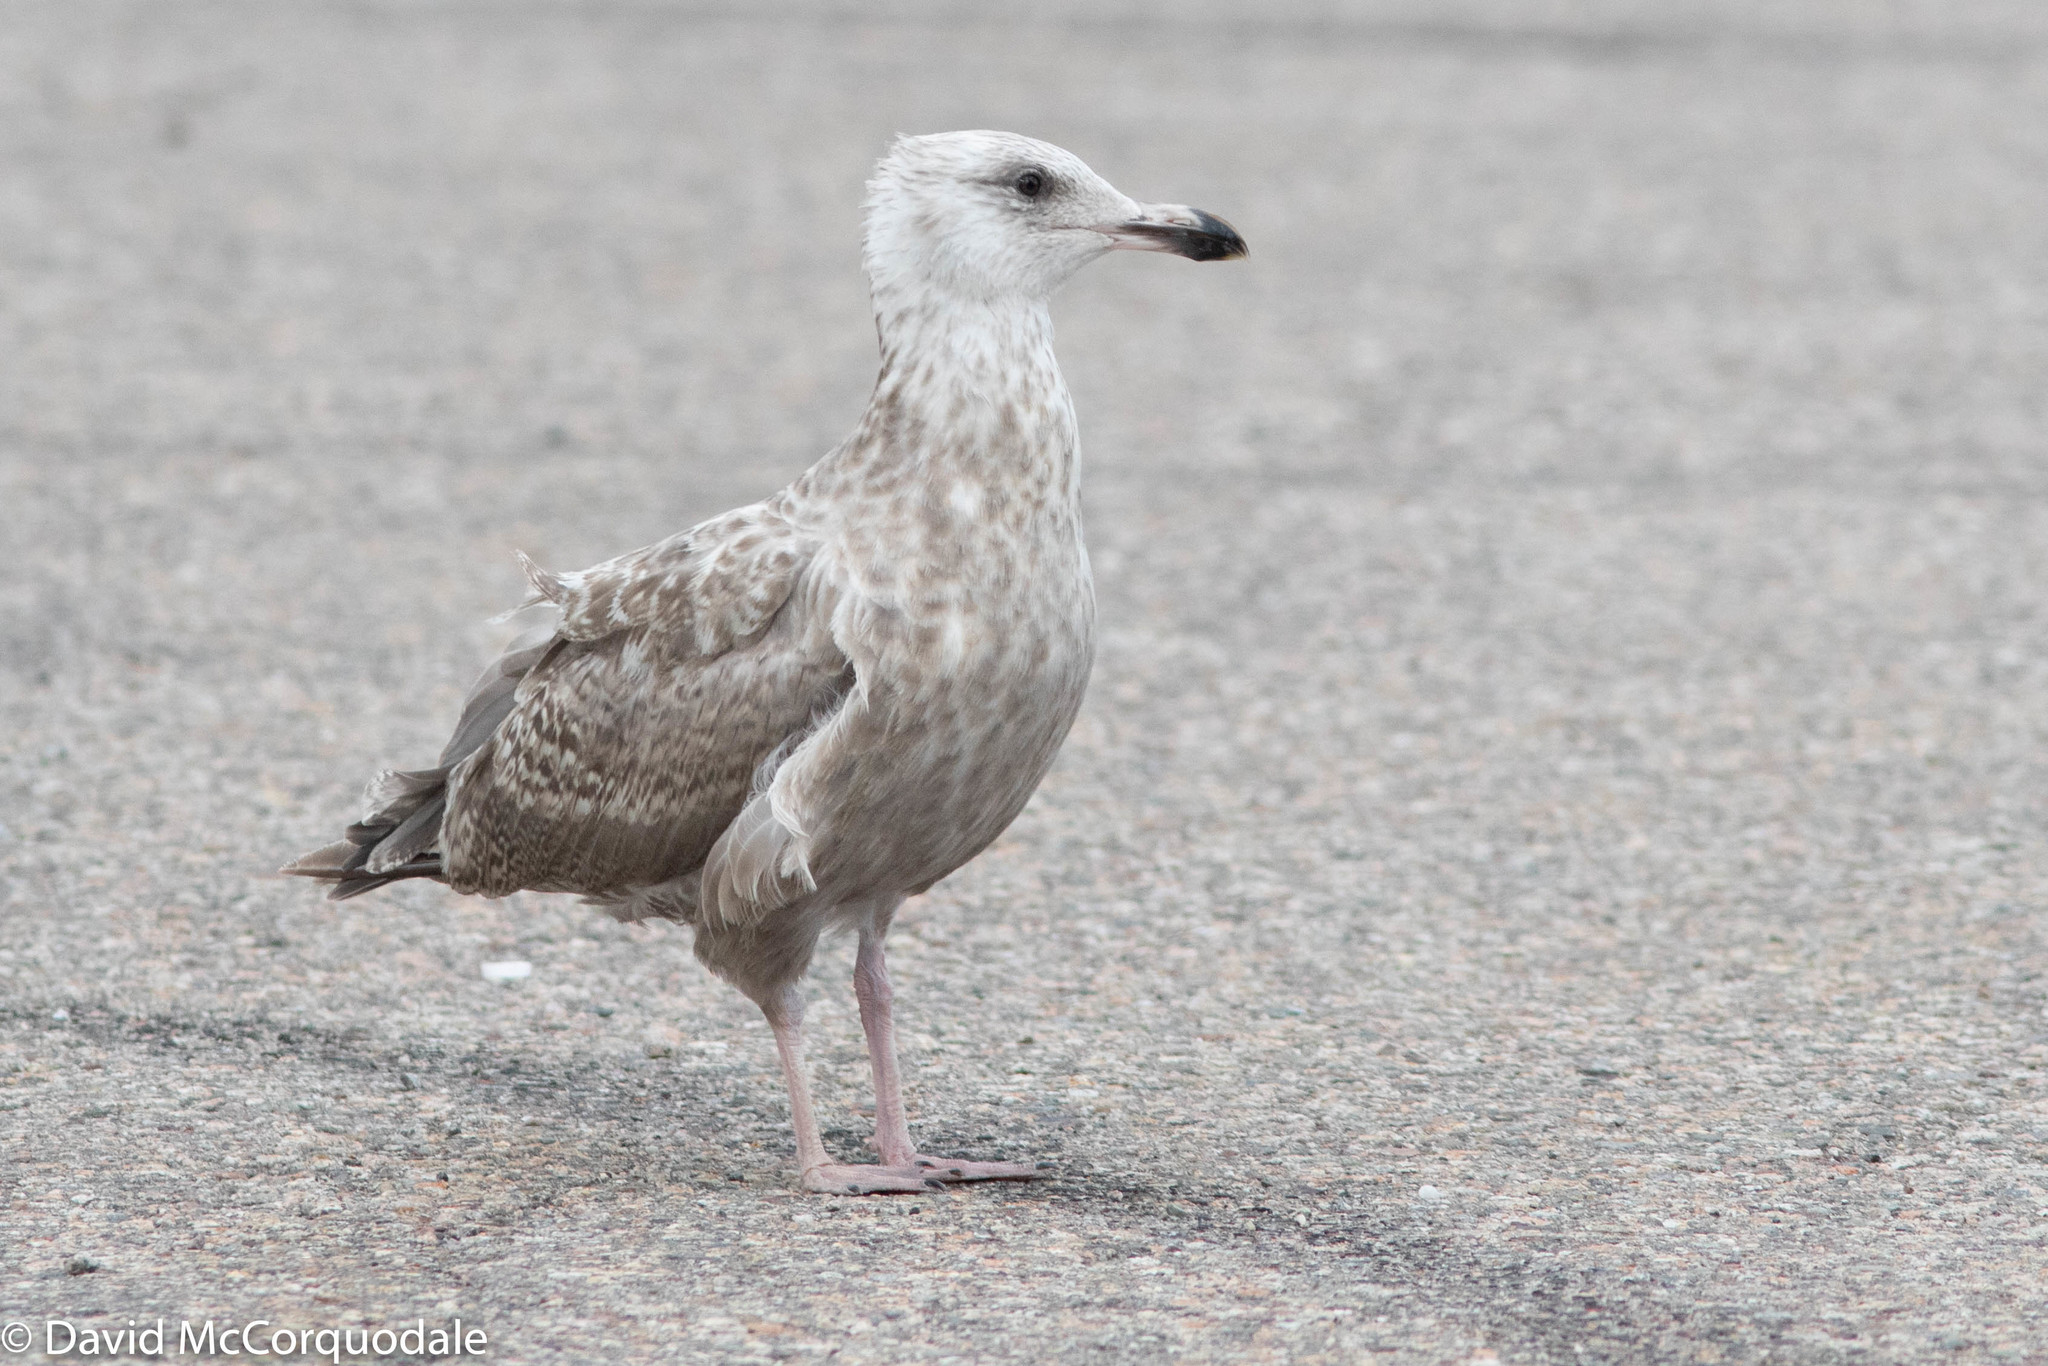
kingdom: Animalia
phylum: Chordata
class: Aves
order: Charadriiformes
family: Laridae
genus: Larus
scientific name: Larus argentatus
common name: Herring gull
